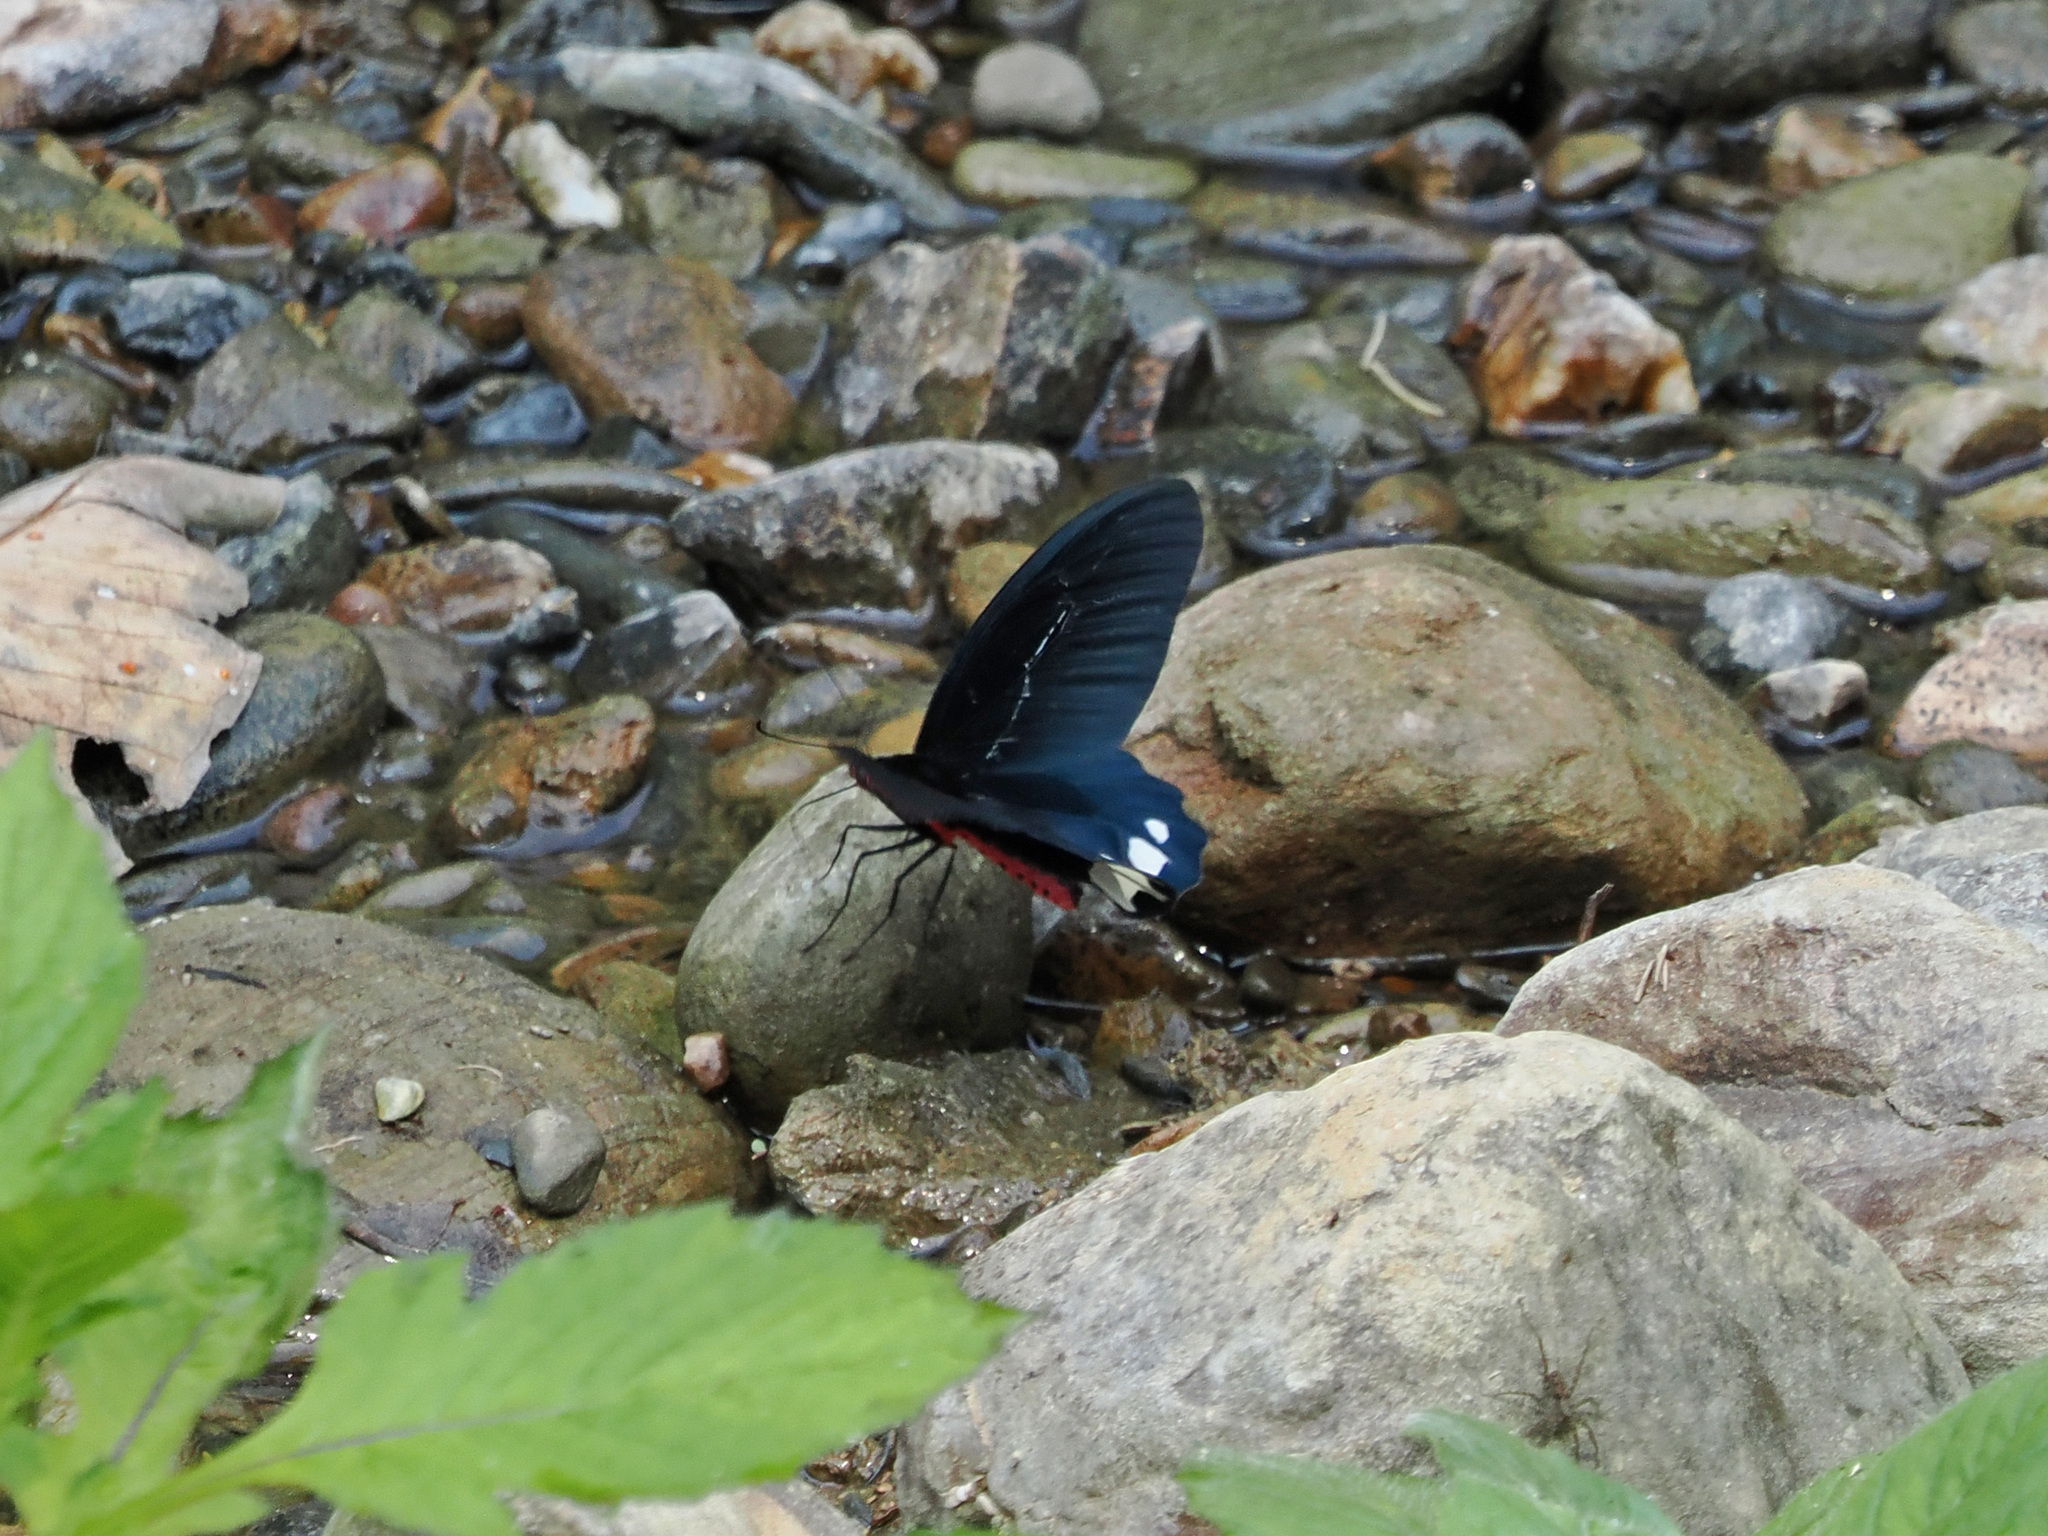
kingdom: Animalia
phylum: Arthropoda
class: Insecta
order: Lepidoptera
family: Papilionidae
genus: Atrophaneura
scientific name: Atrophaneura varuna
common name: Common batwing
